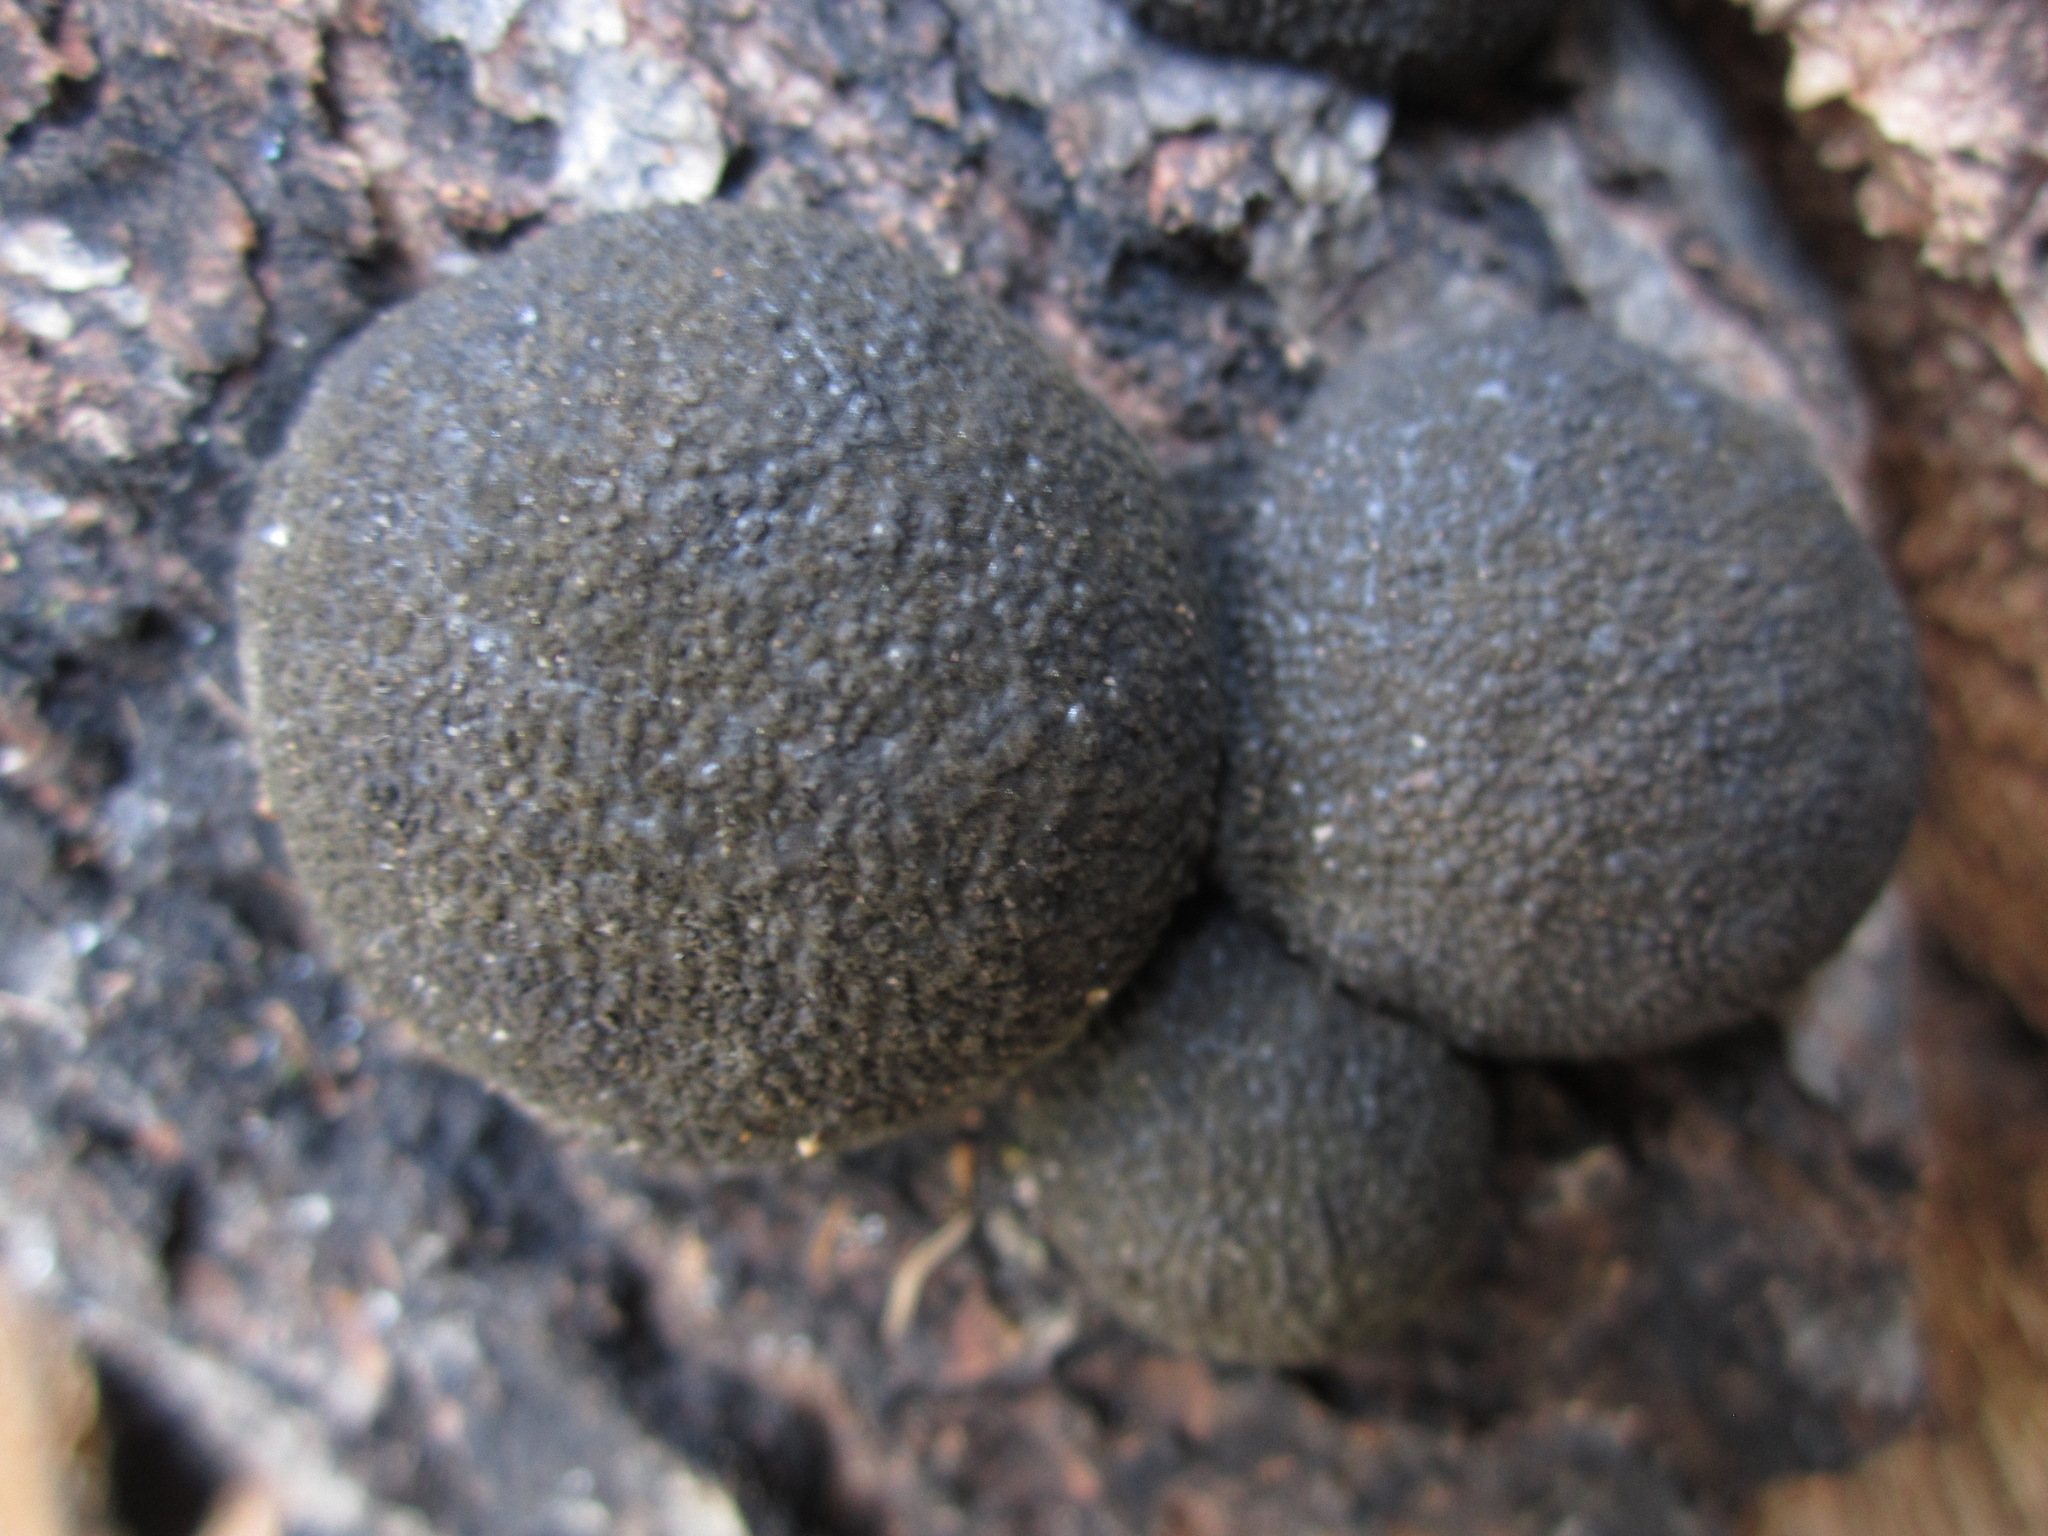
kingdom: Fungi
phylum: Ascomycota
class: Sordariomycetes
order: Xylariales
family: Hypoxylaceae
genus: Annulohypoxylon
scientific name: Annulohypoxylon thouarsianum
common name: Cramp balls
